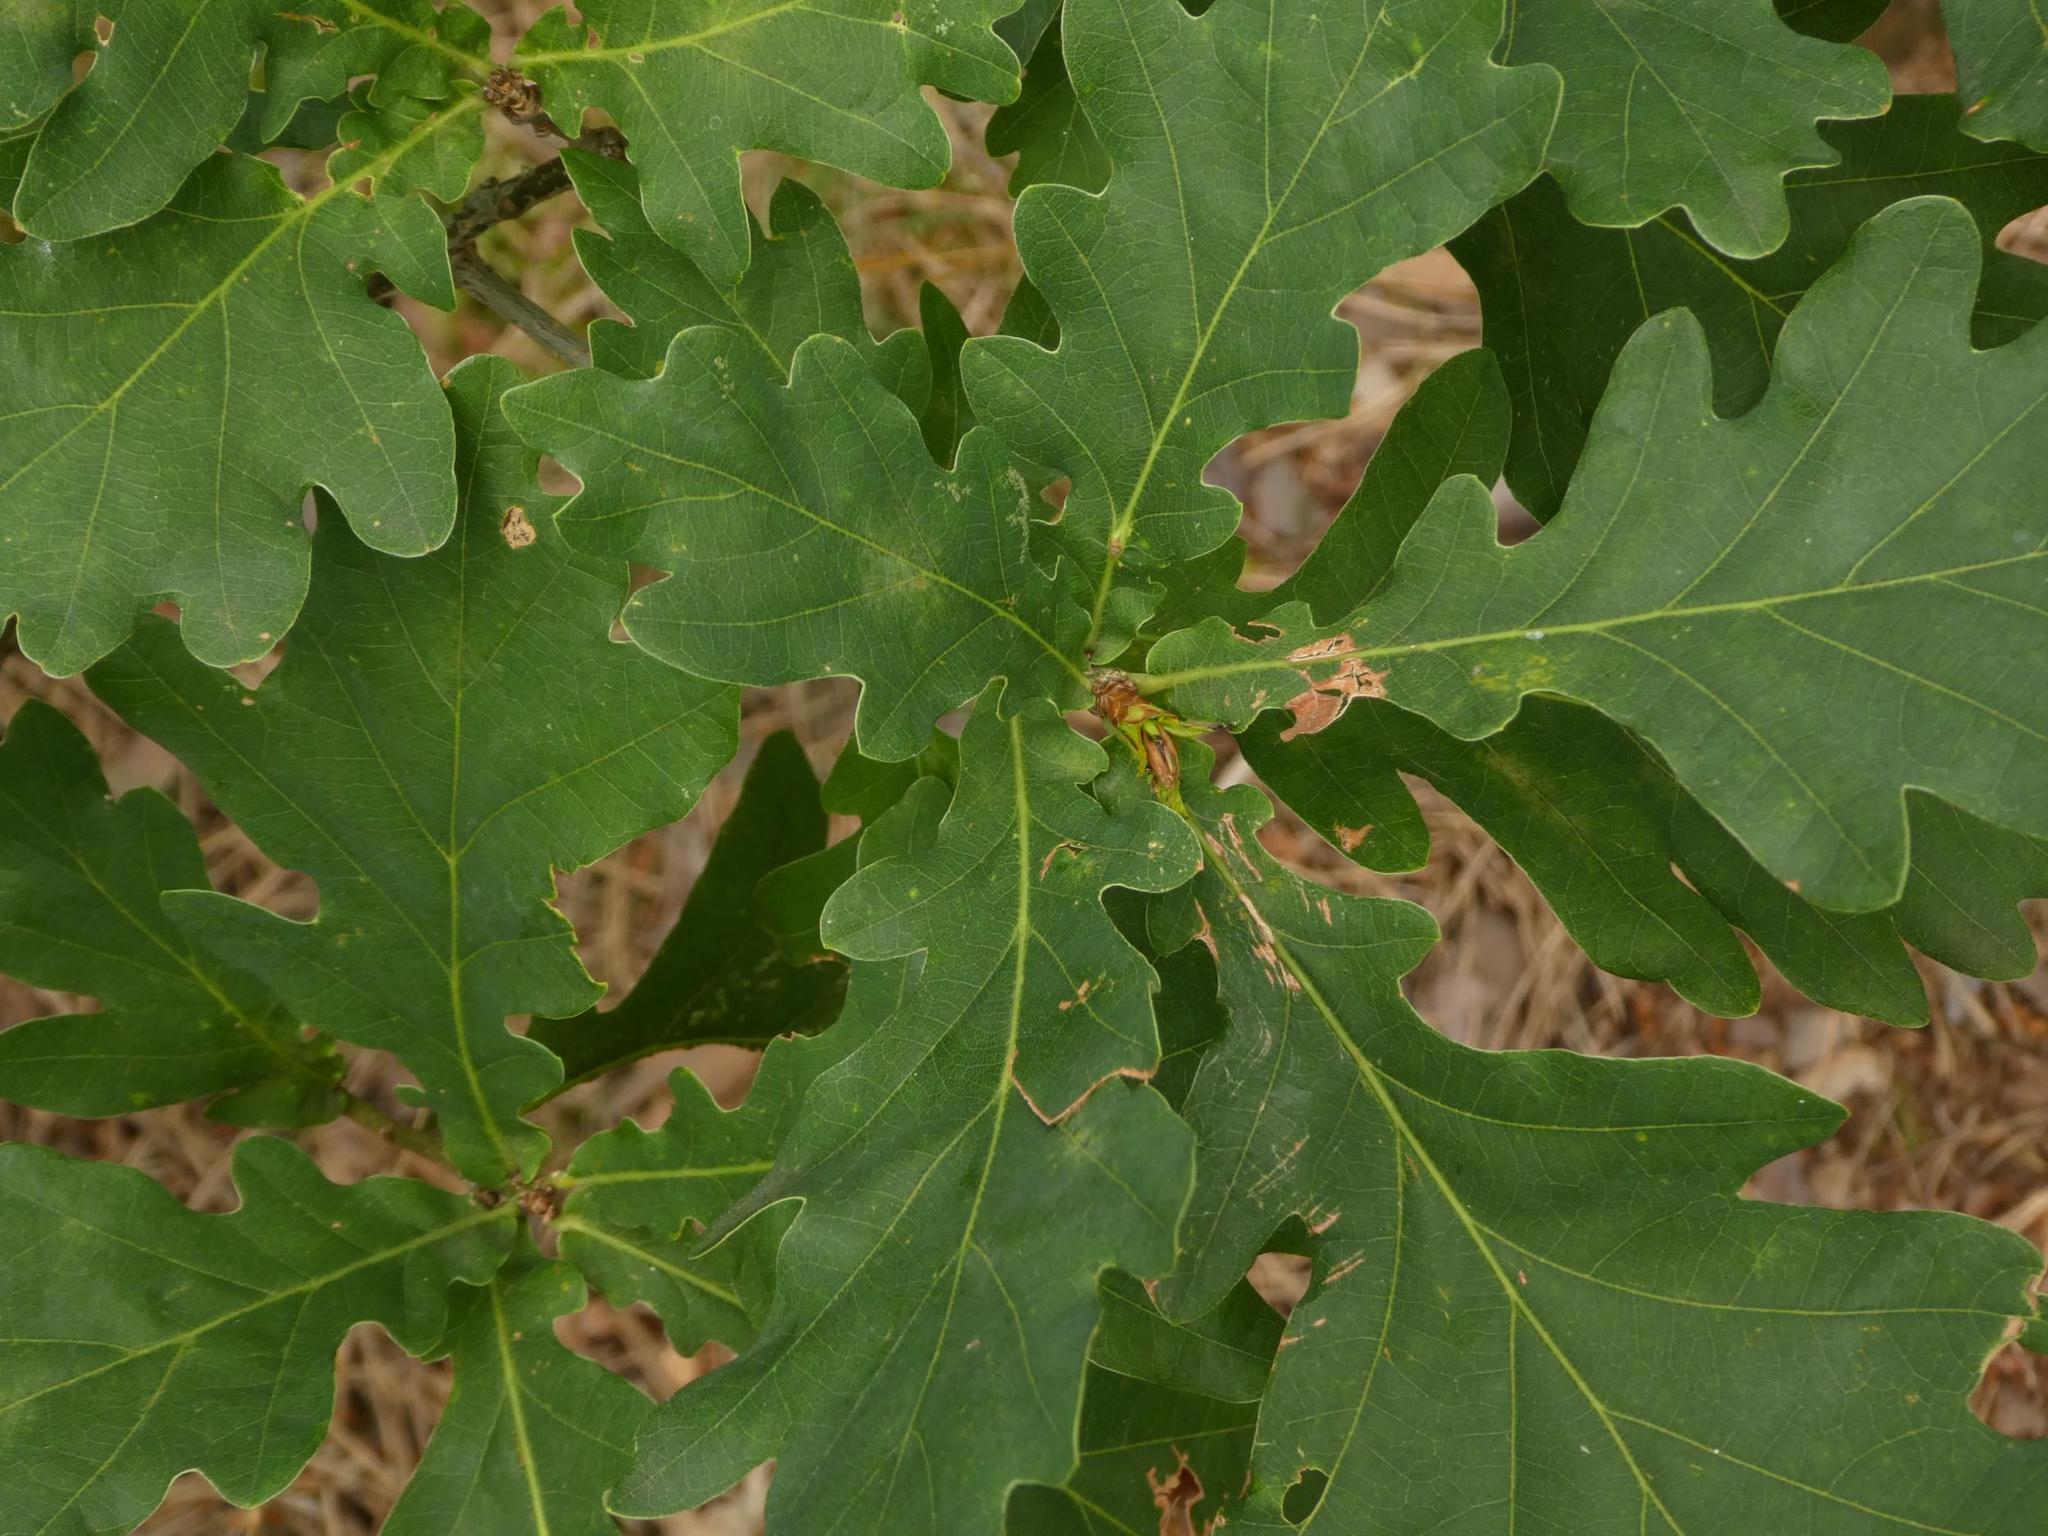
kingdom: Plantae
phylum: Tracheophyta
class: Magnoliopsida
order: Fagales
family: Fagaceae
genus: Quercus
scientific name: Quercus robur
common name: Pedunculate oak
